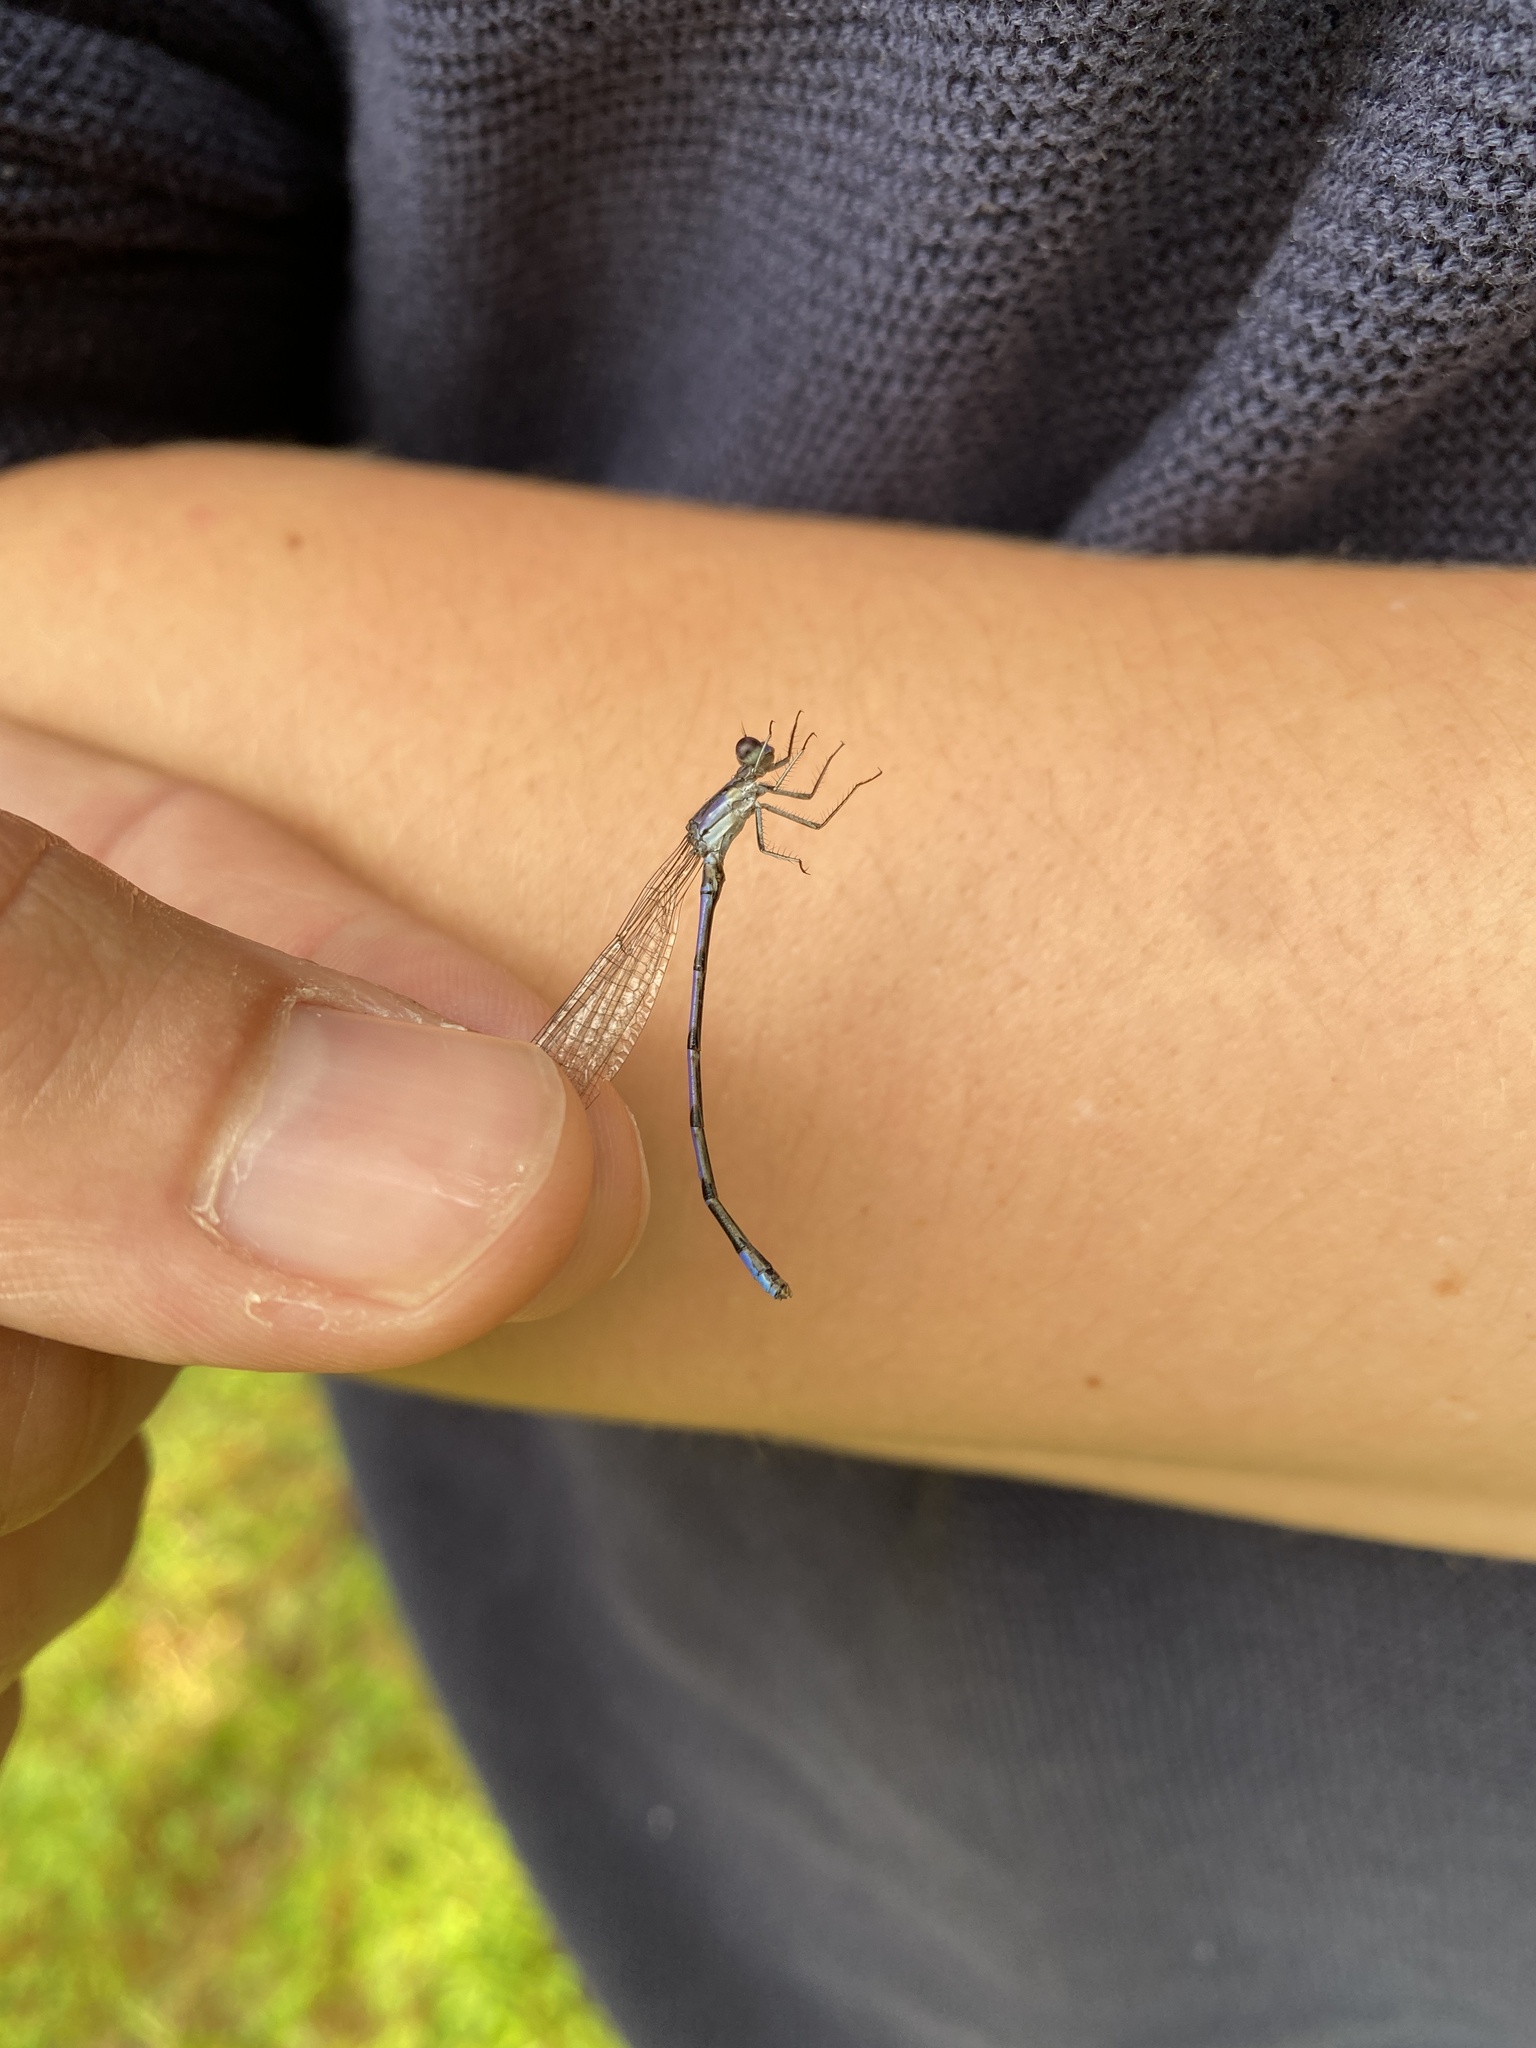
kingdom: Animalia
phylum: Arthropoda
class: Insecta
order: Odonata
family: Coenagrionidae
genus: Argia
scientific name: Argia fumipennis
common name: Variable dancer
